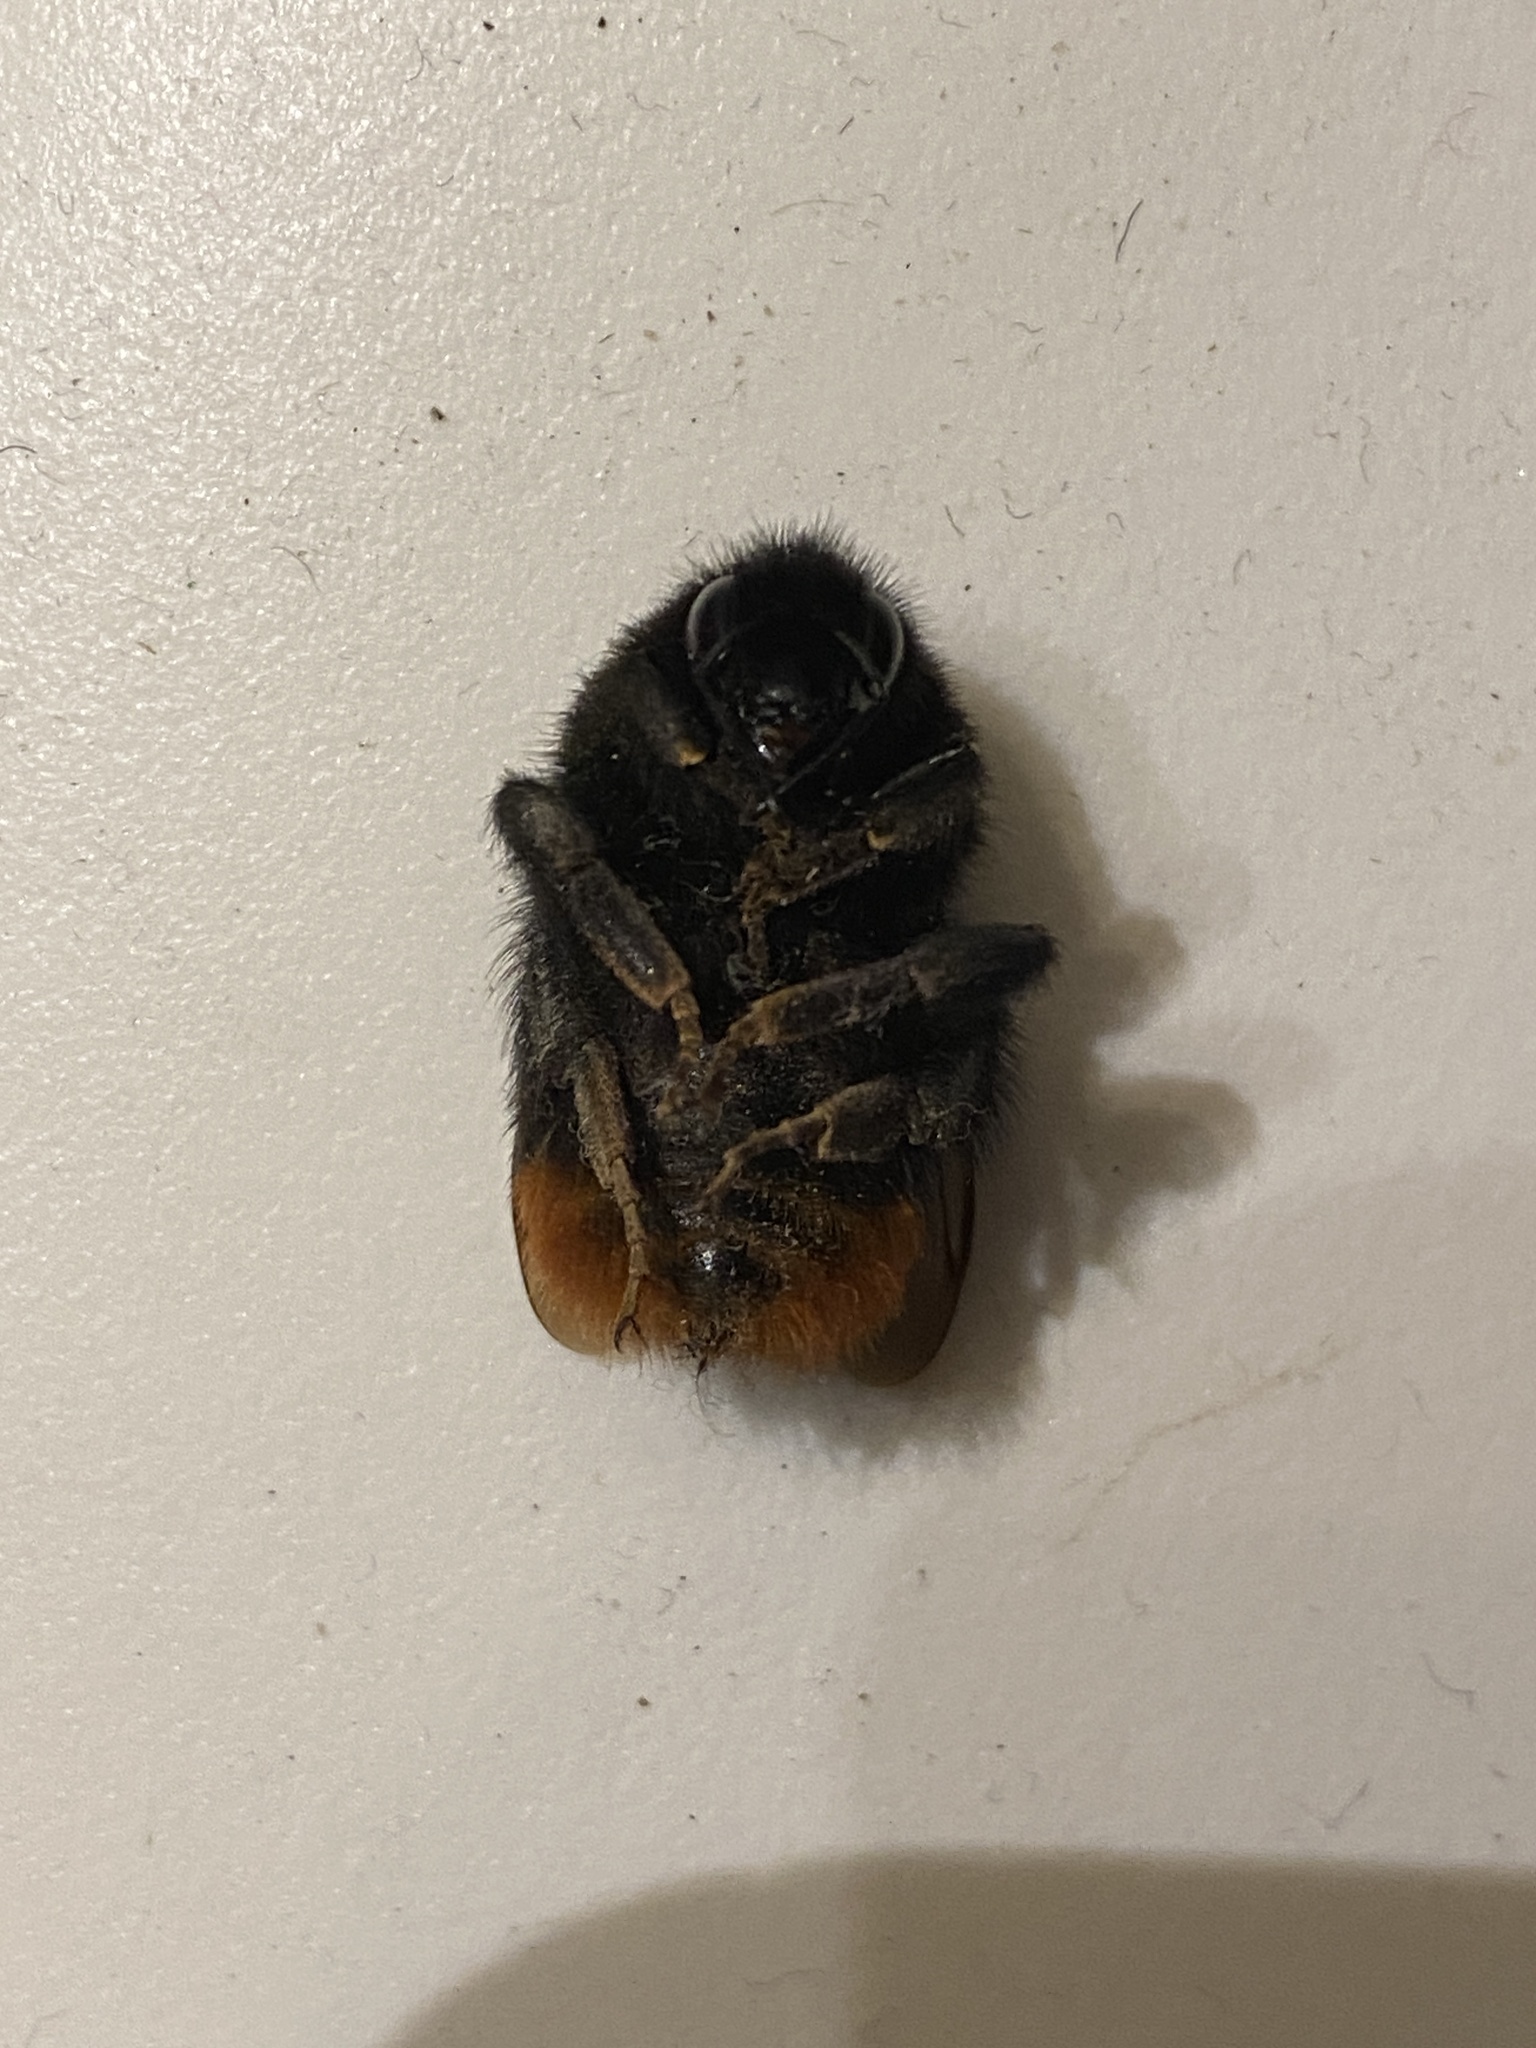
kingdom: Animalia
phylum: Arthropoda
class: Insecta
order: Hymenoptera
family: Apidae
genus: Bombus
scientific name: Bombus lapidarius
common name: Large red-tailed humble-bee
